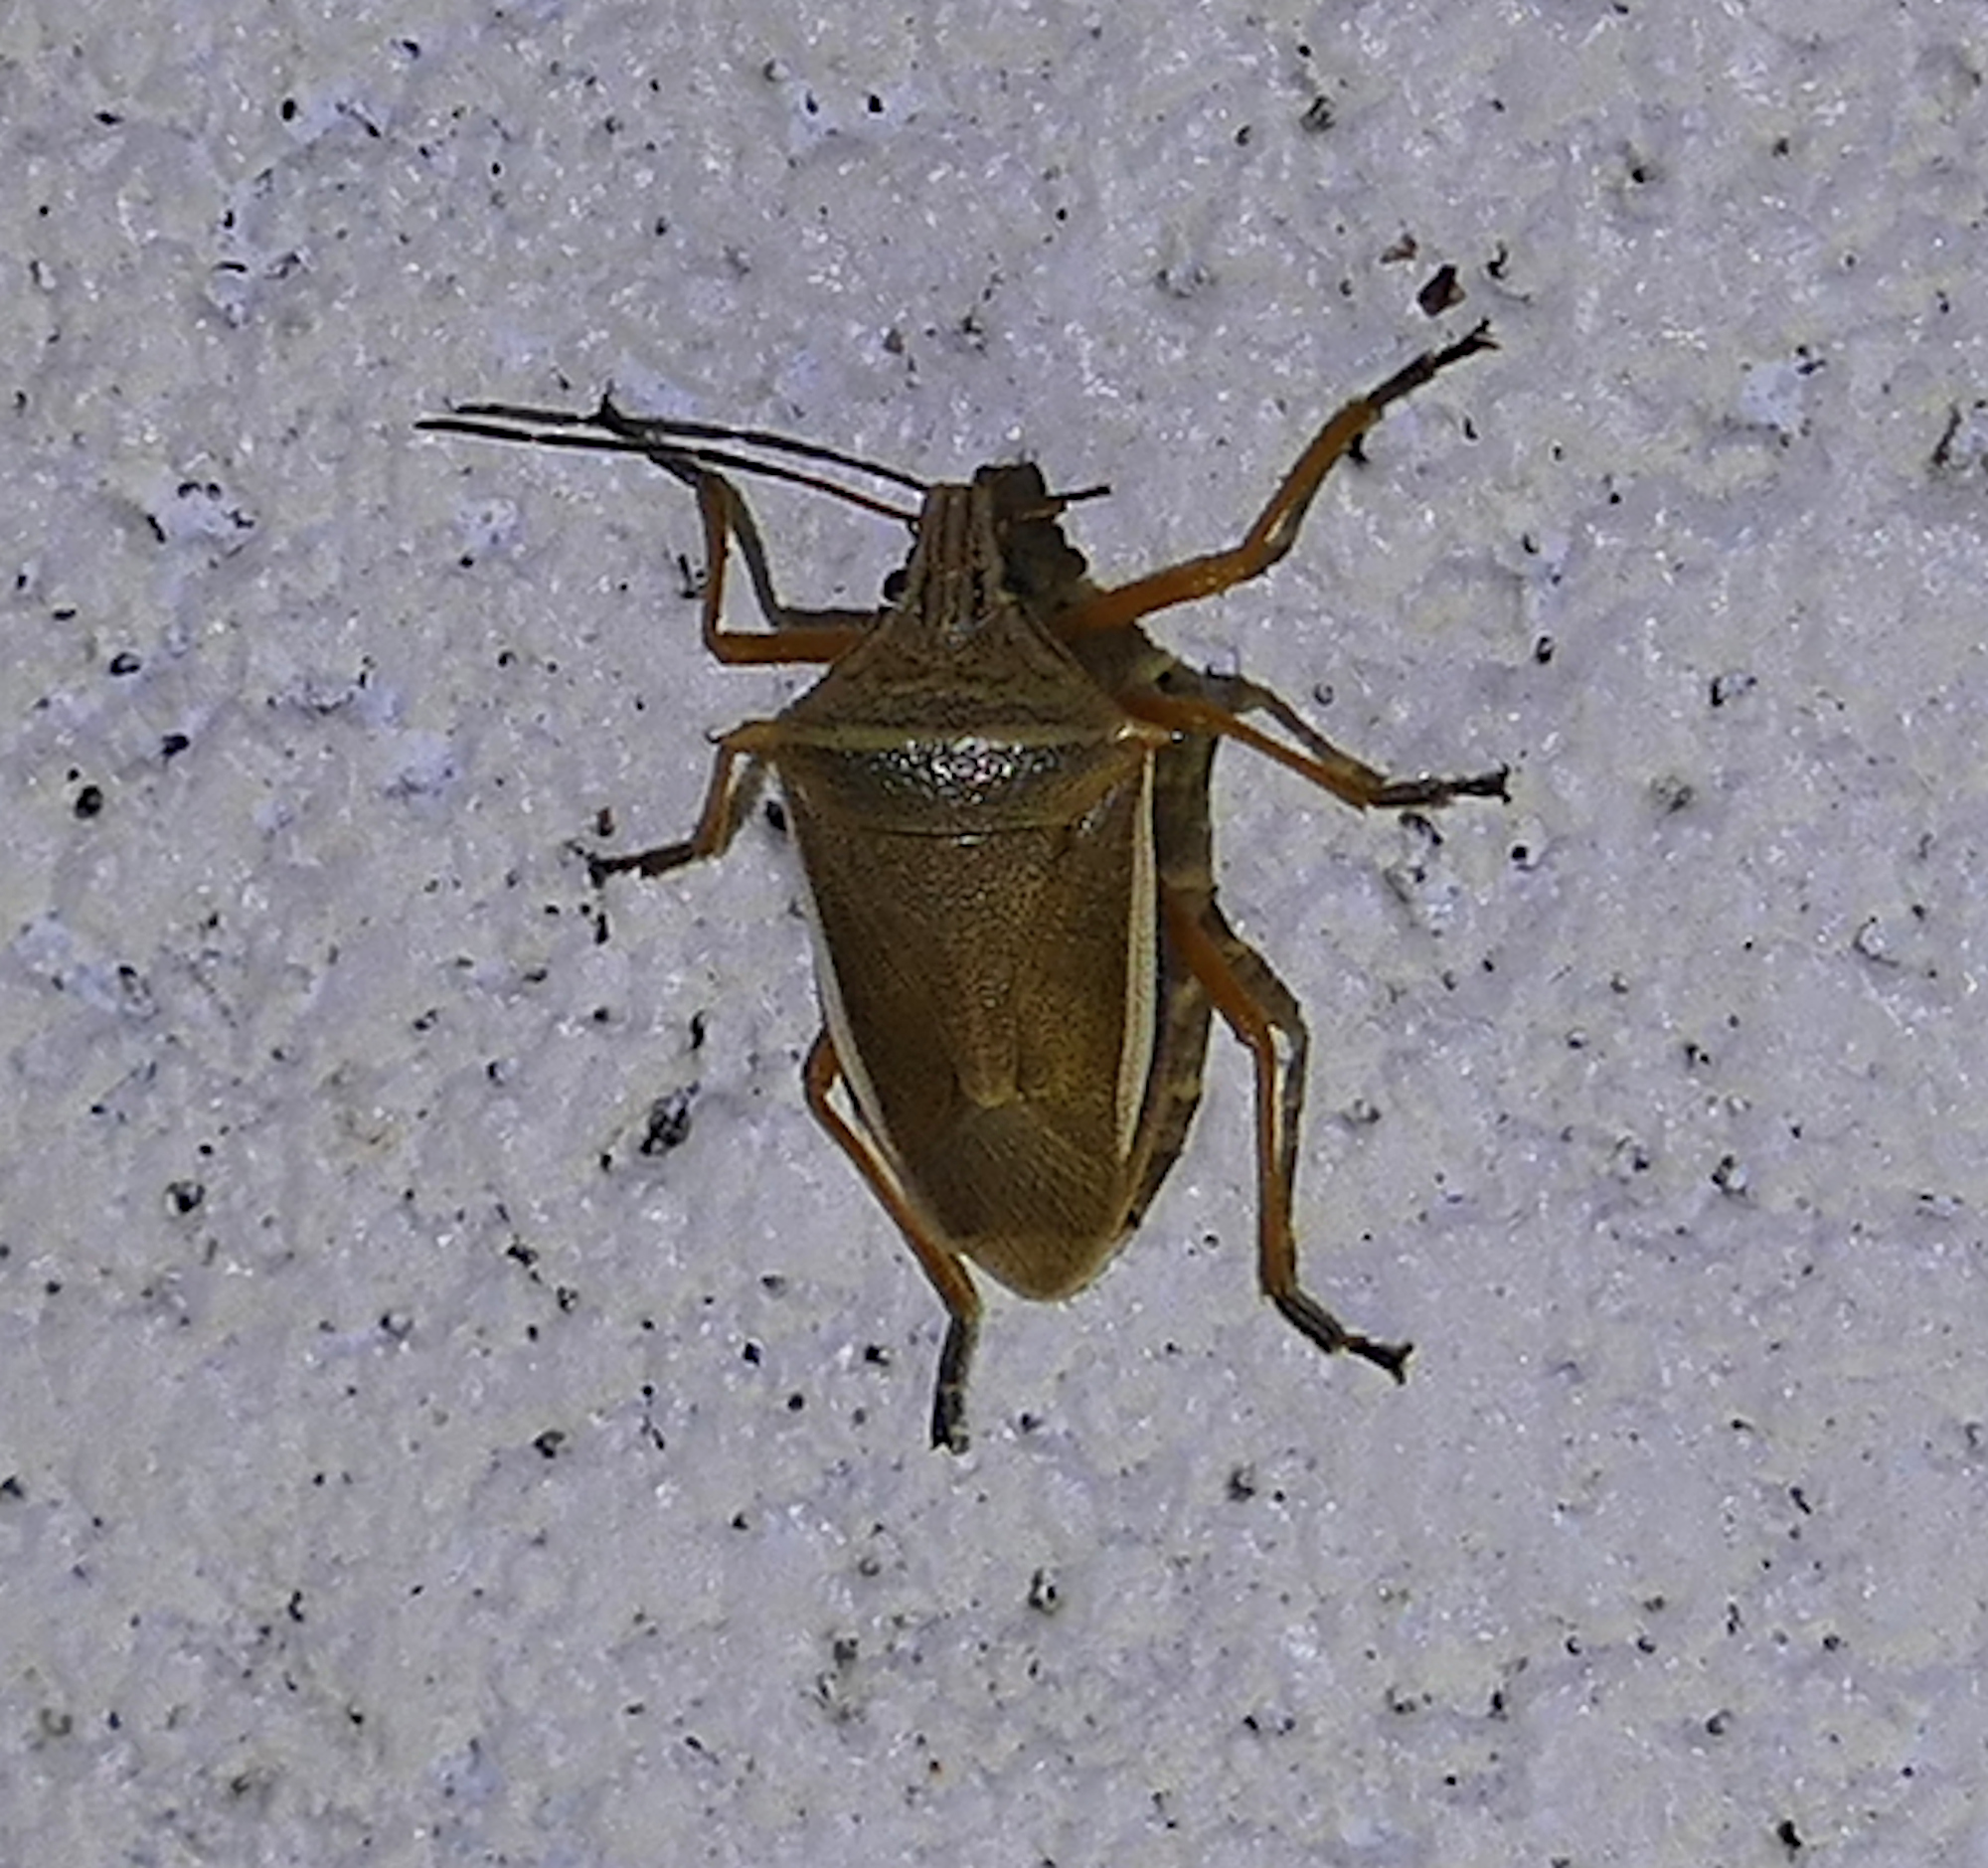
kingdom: Animalia
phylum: Arthropoda
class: Insecta
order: Hemiptera
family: Pentatomidae
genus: Andrallus
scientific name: Andrallus spinidens
